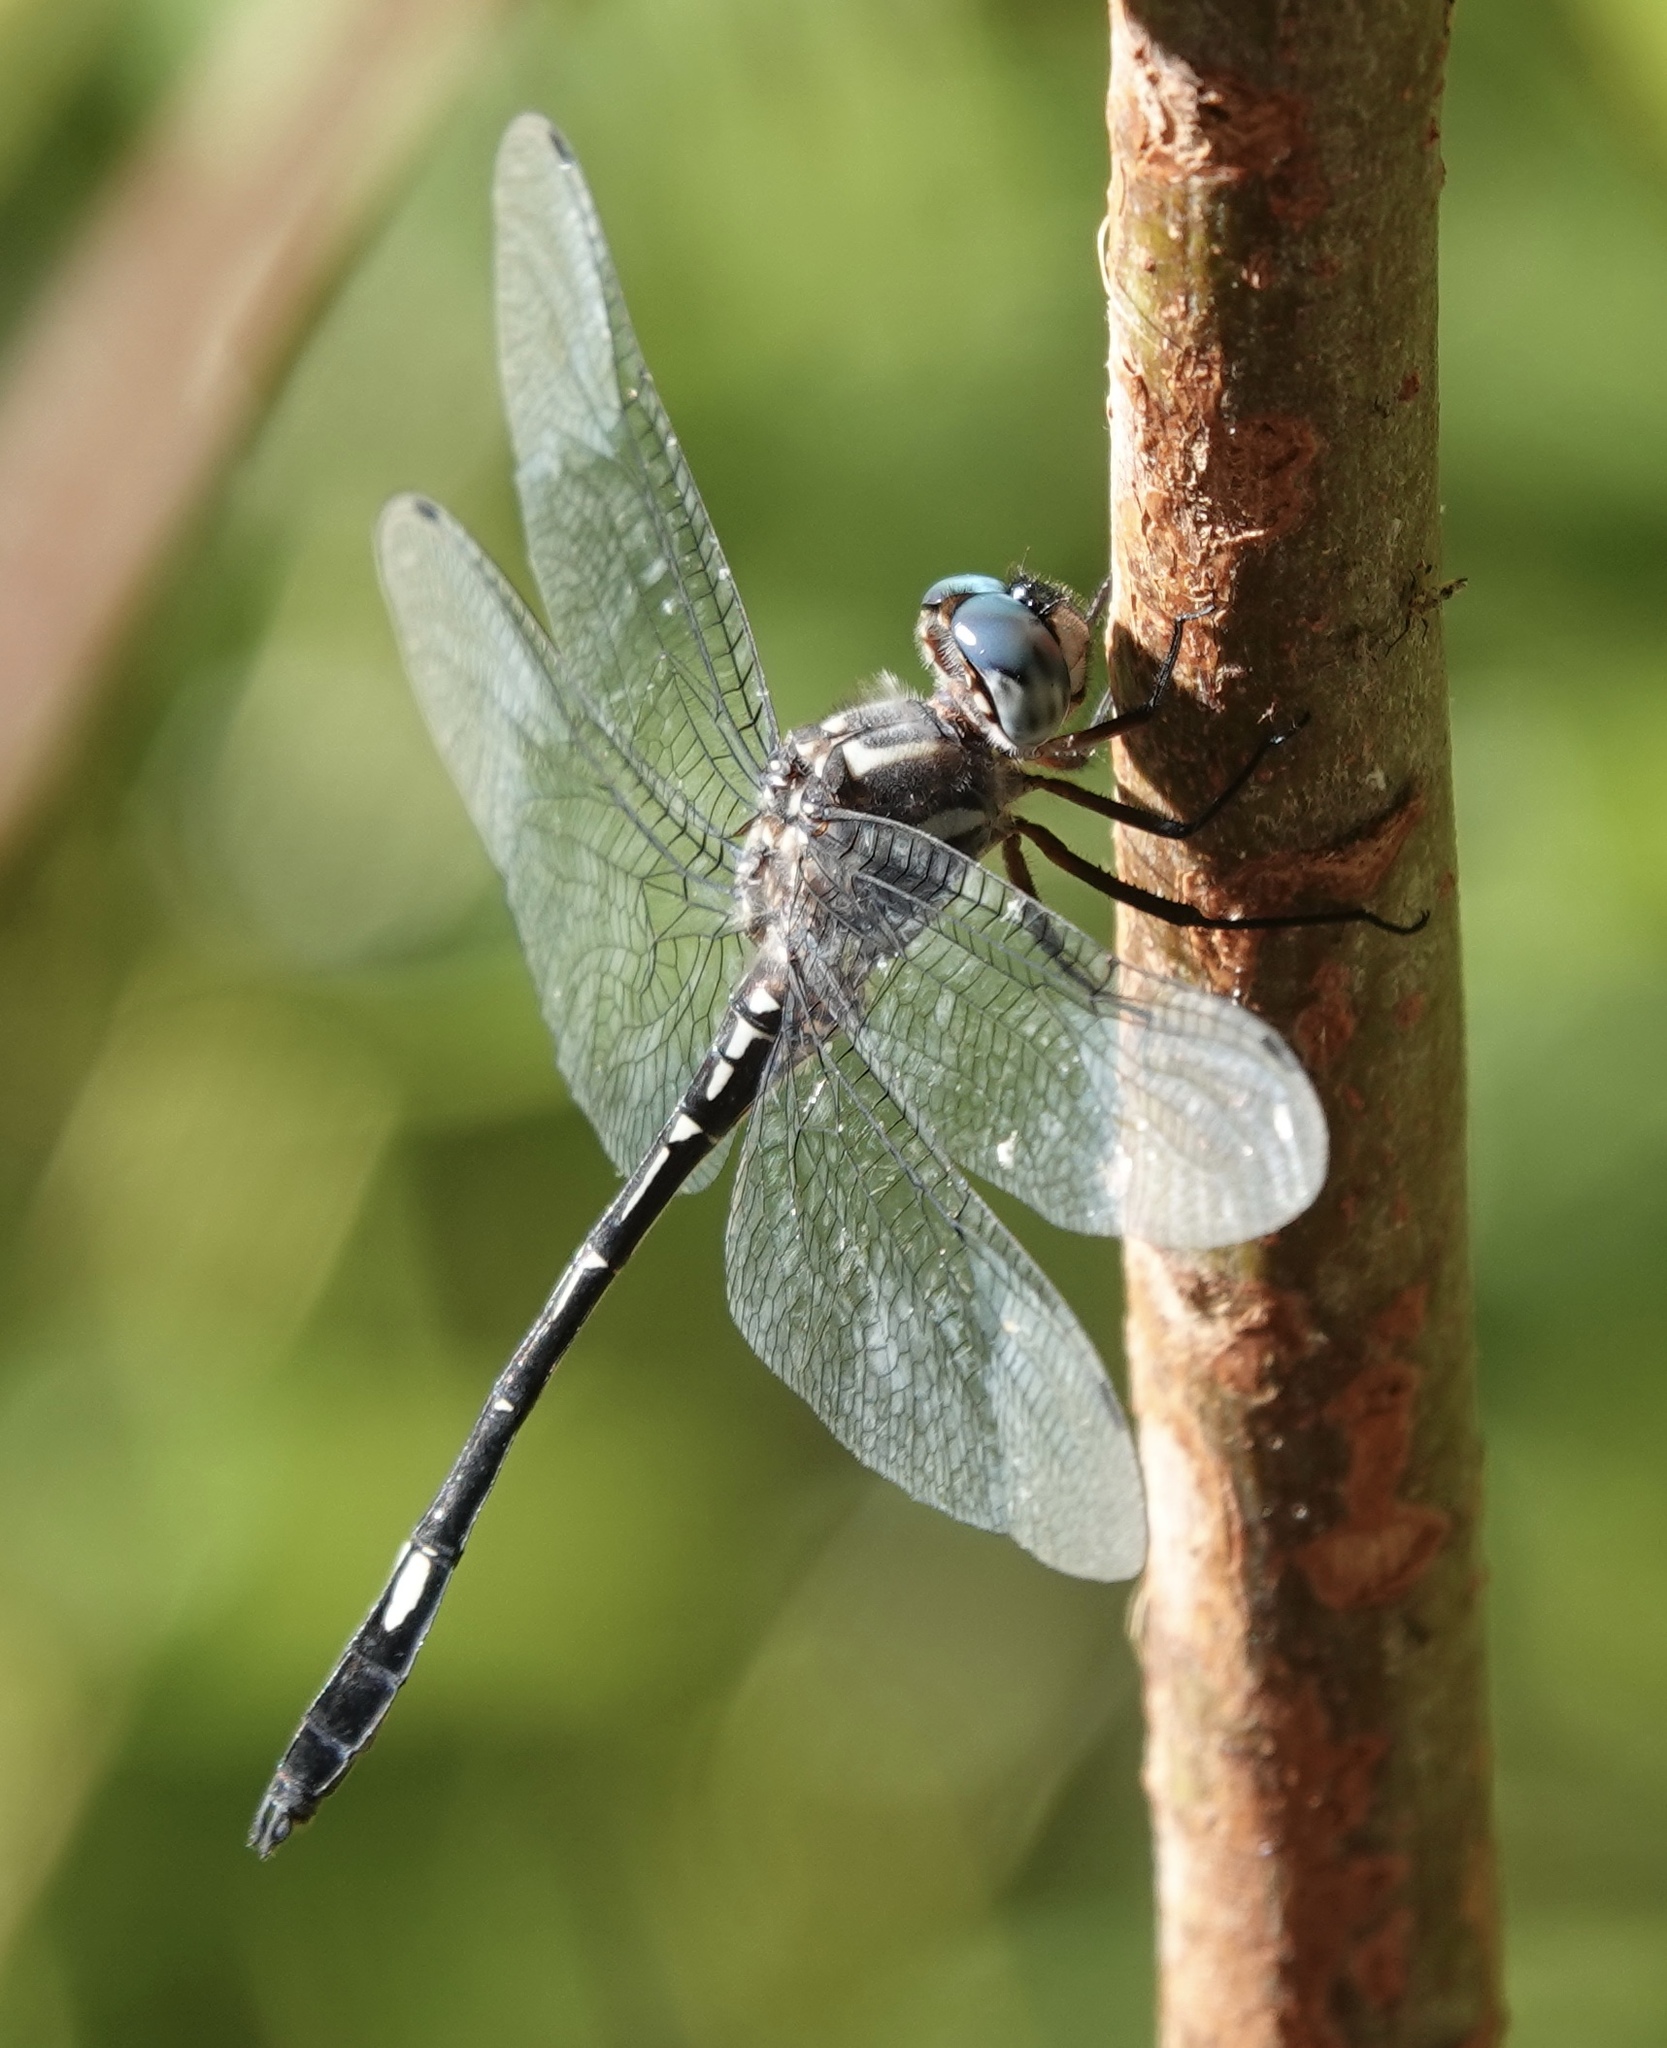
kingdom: Animalia
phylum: Arthropoda
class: Insecta
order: Odonata
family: Libellulidae
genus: Brechmorhoga
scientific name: Brechmorhoga pertinax
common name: Masked clubskimmer
